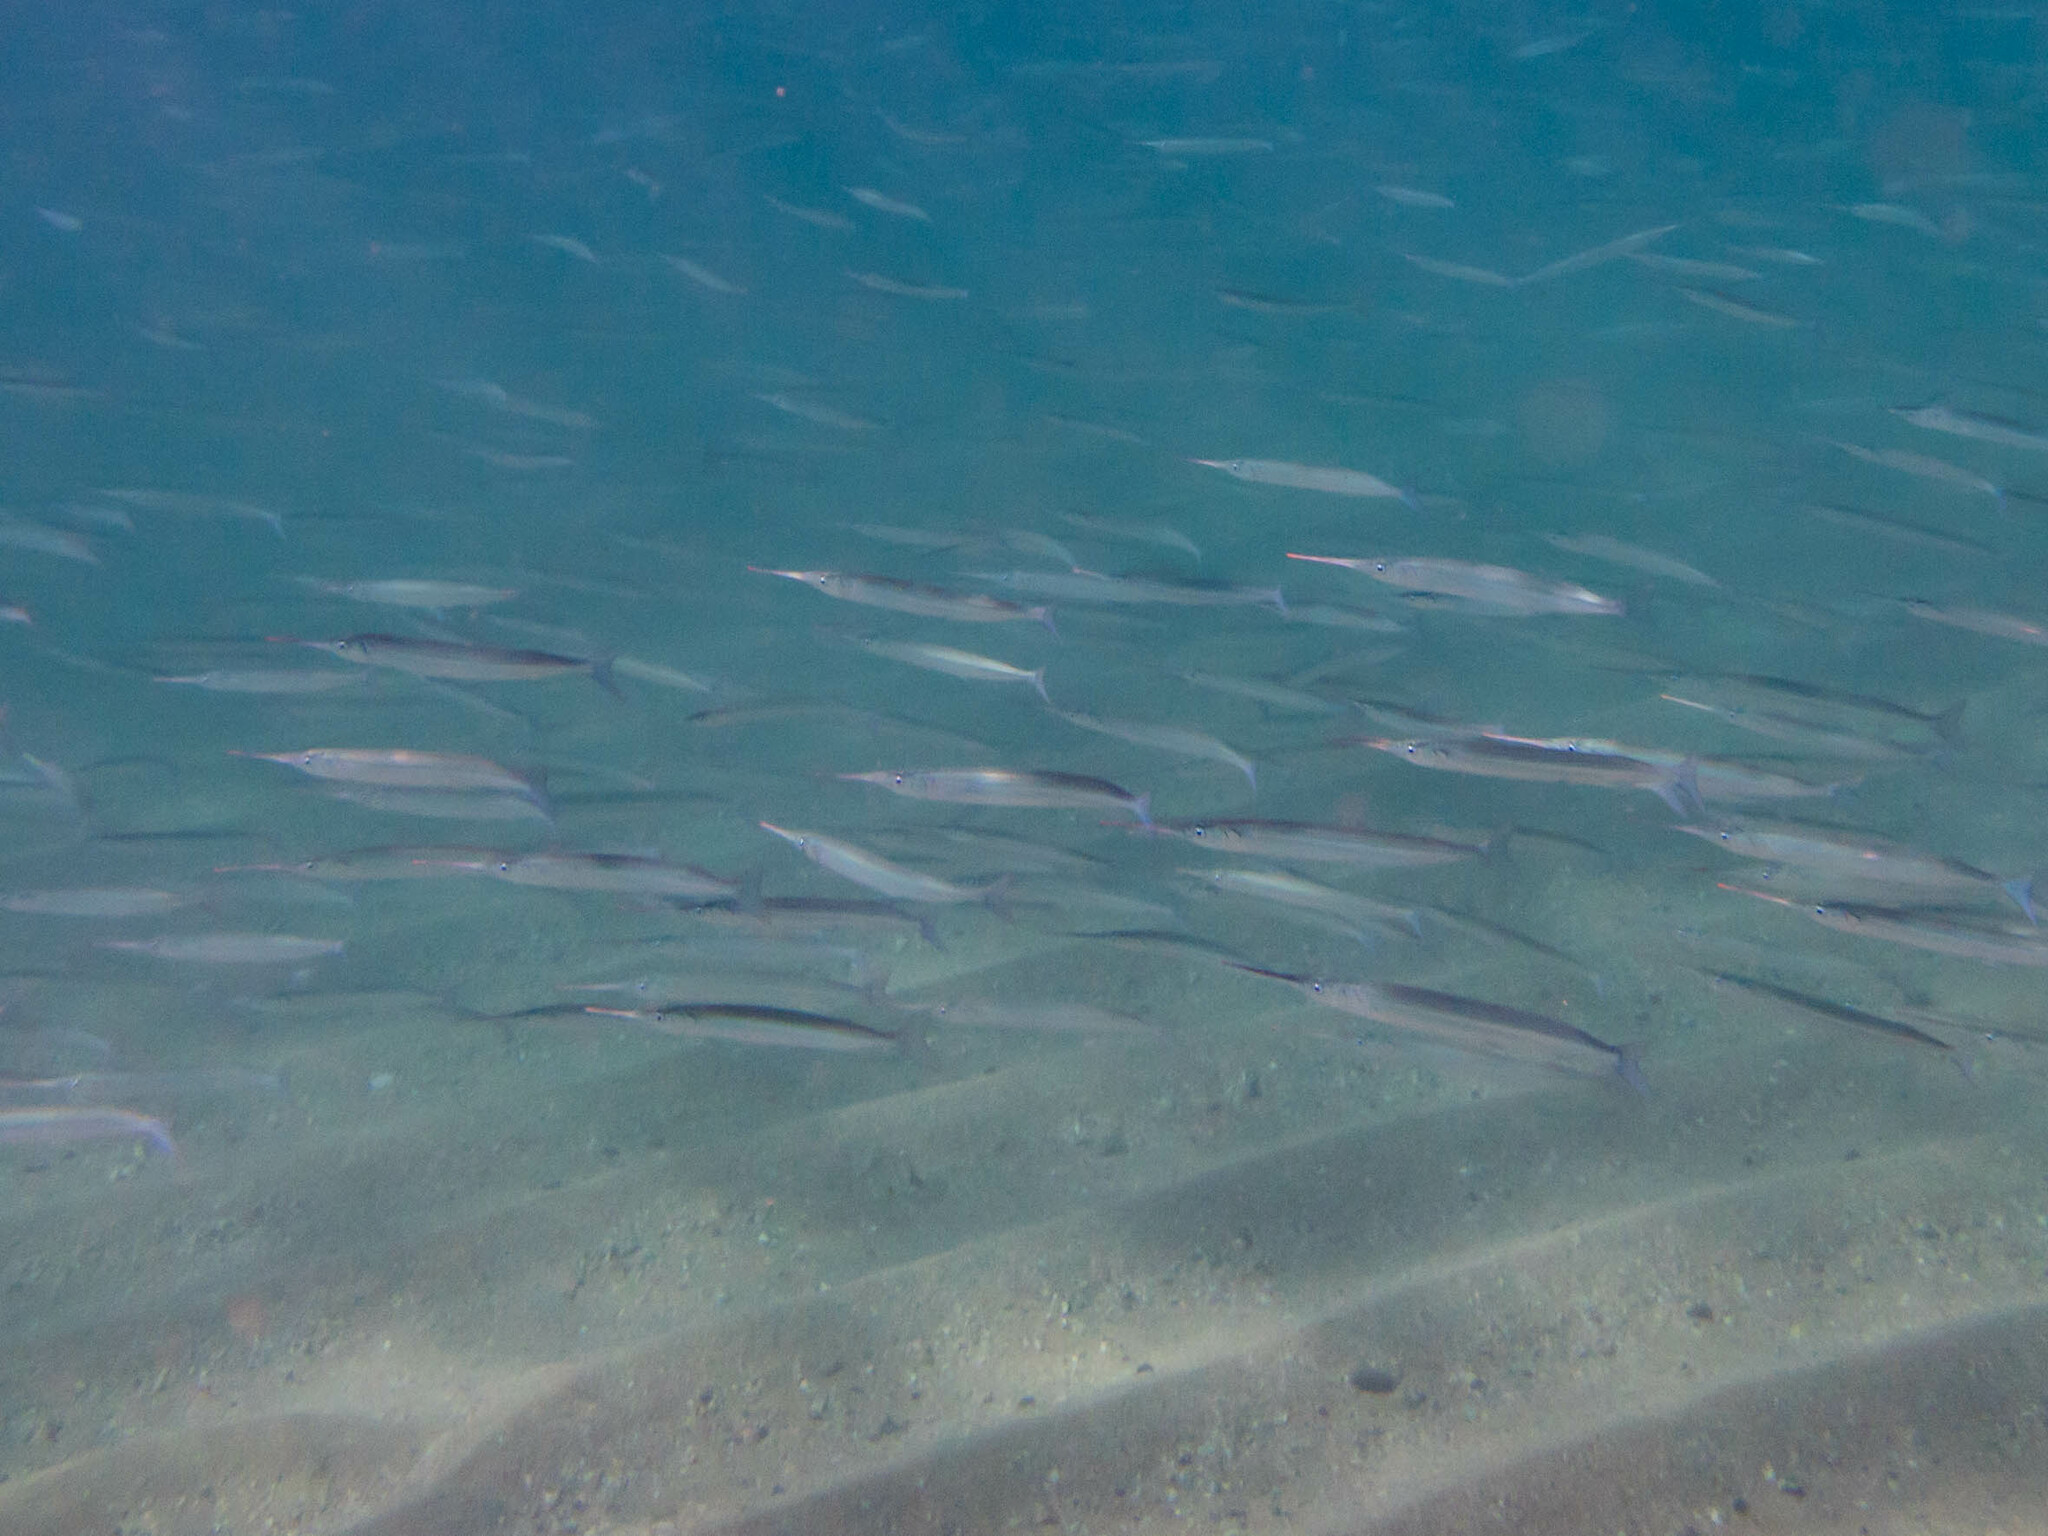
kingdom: Animalia
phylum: Chordata
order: Beloniformes
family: Hemiramphidae
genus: Hyporhamphus
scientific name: Hyporhamphus australis
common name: Eastern sea garfish
